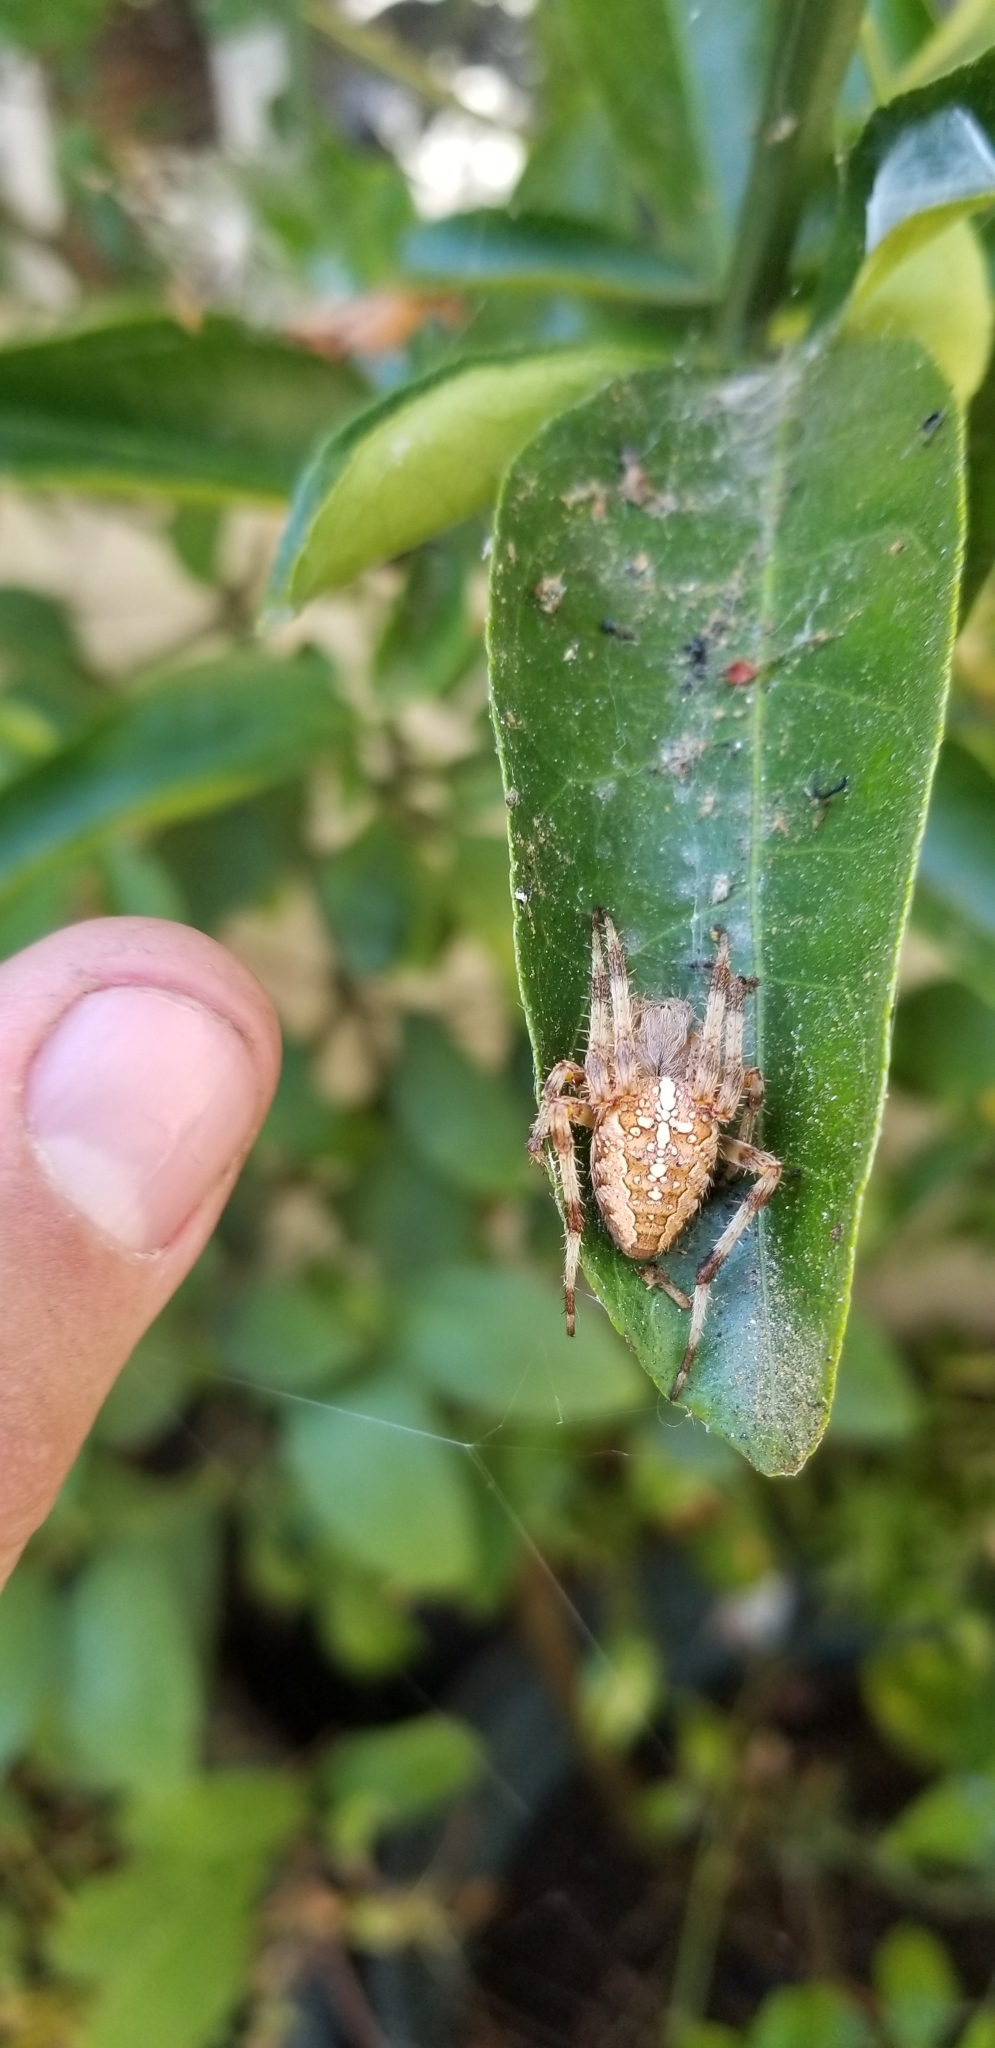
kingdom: Animalia
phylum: Arthropoda
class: Arachnida
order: Araneae
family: Araneidae
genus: Araneus
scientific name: Araneus diadematus
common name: Cross orbweaver
